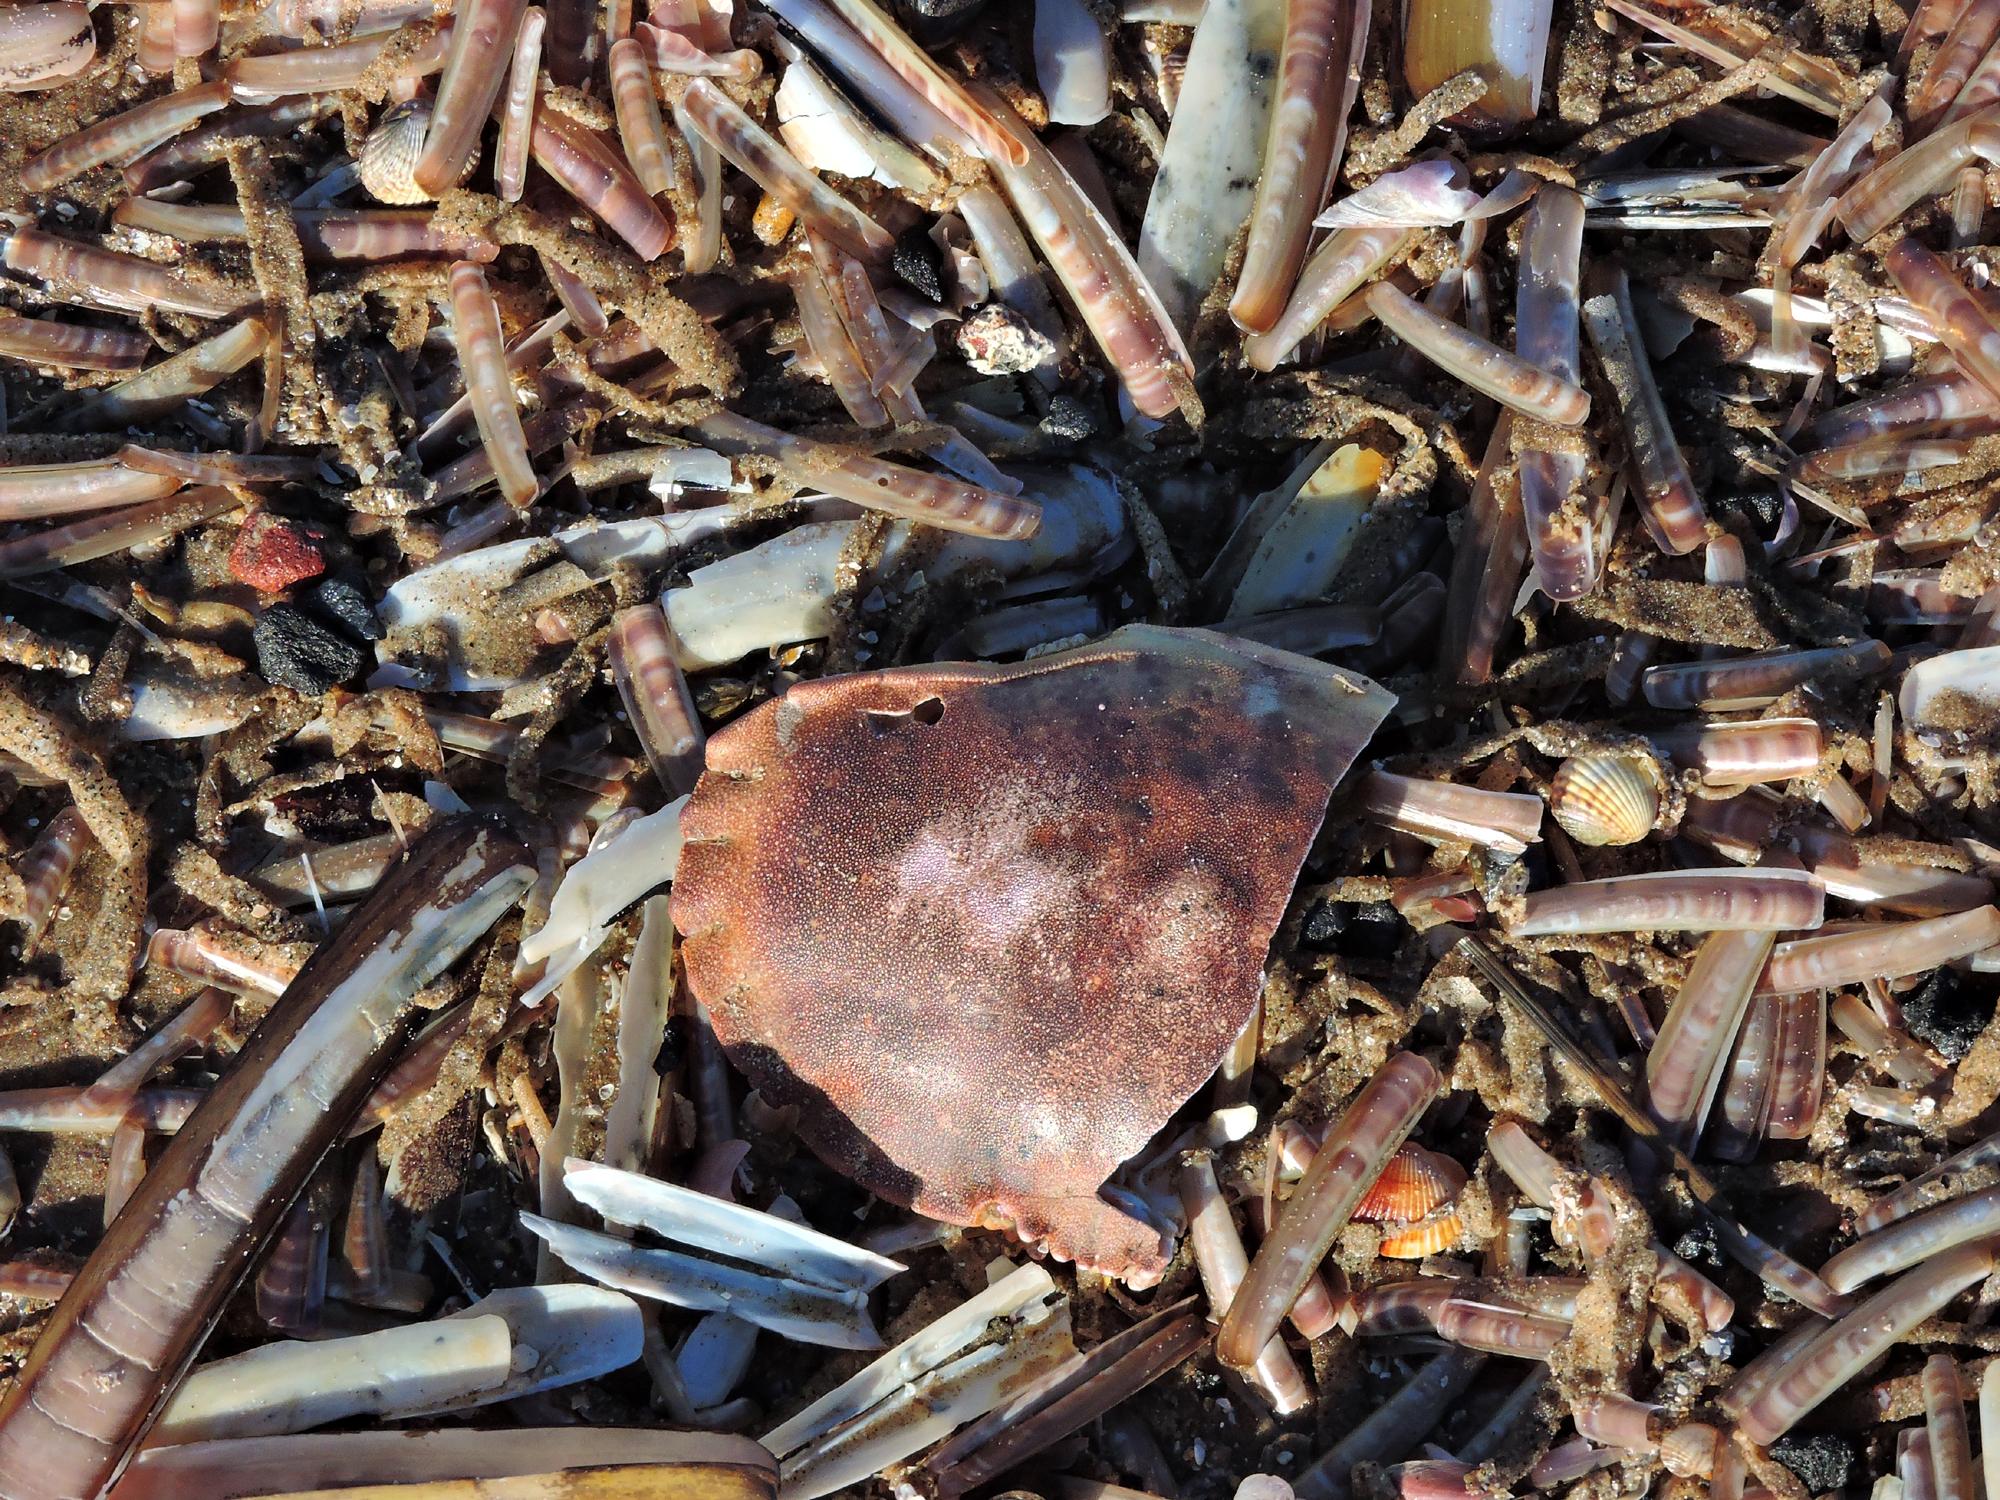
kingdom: Animalia
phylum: Arthropoda
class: Malacostraca
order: Decapoda
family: Cancridae
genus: Cancer
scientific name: Cancer pagurus
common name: Edible crab
